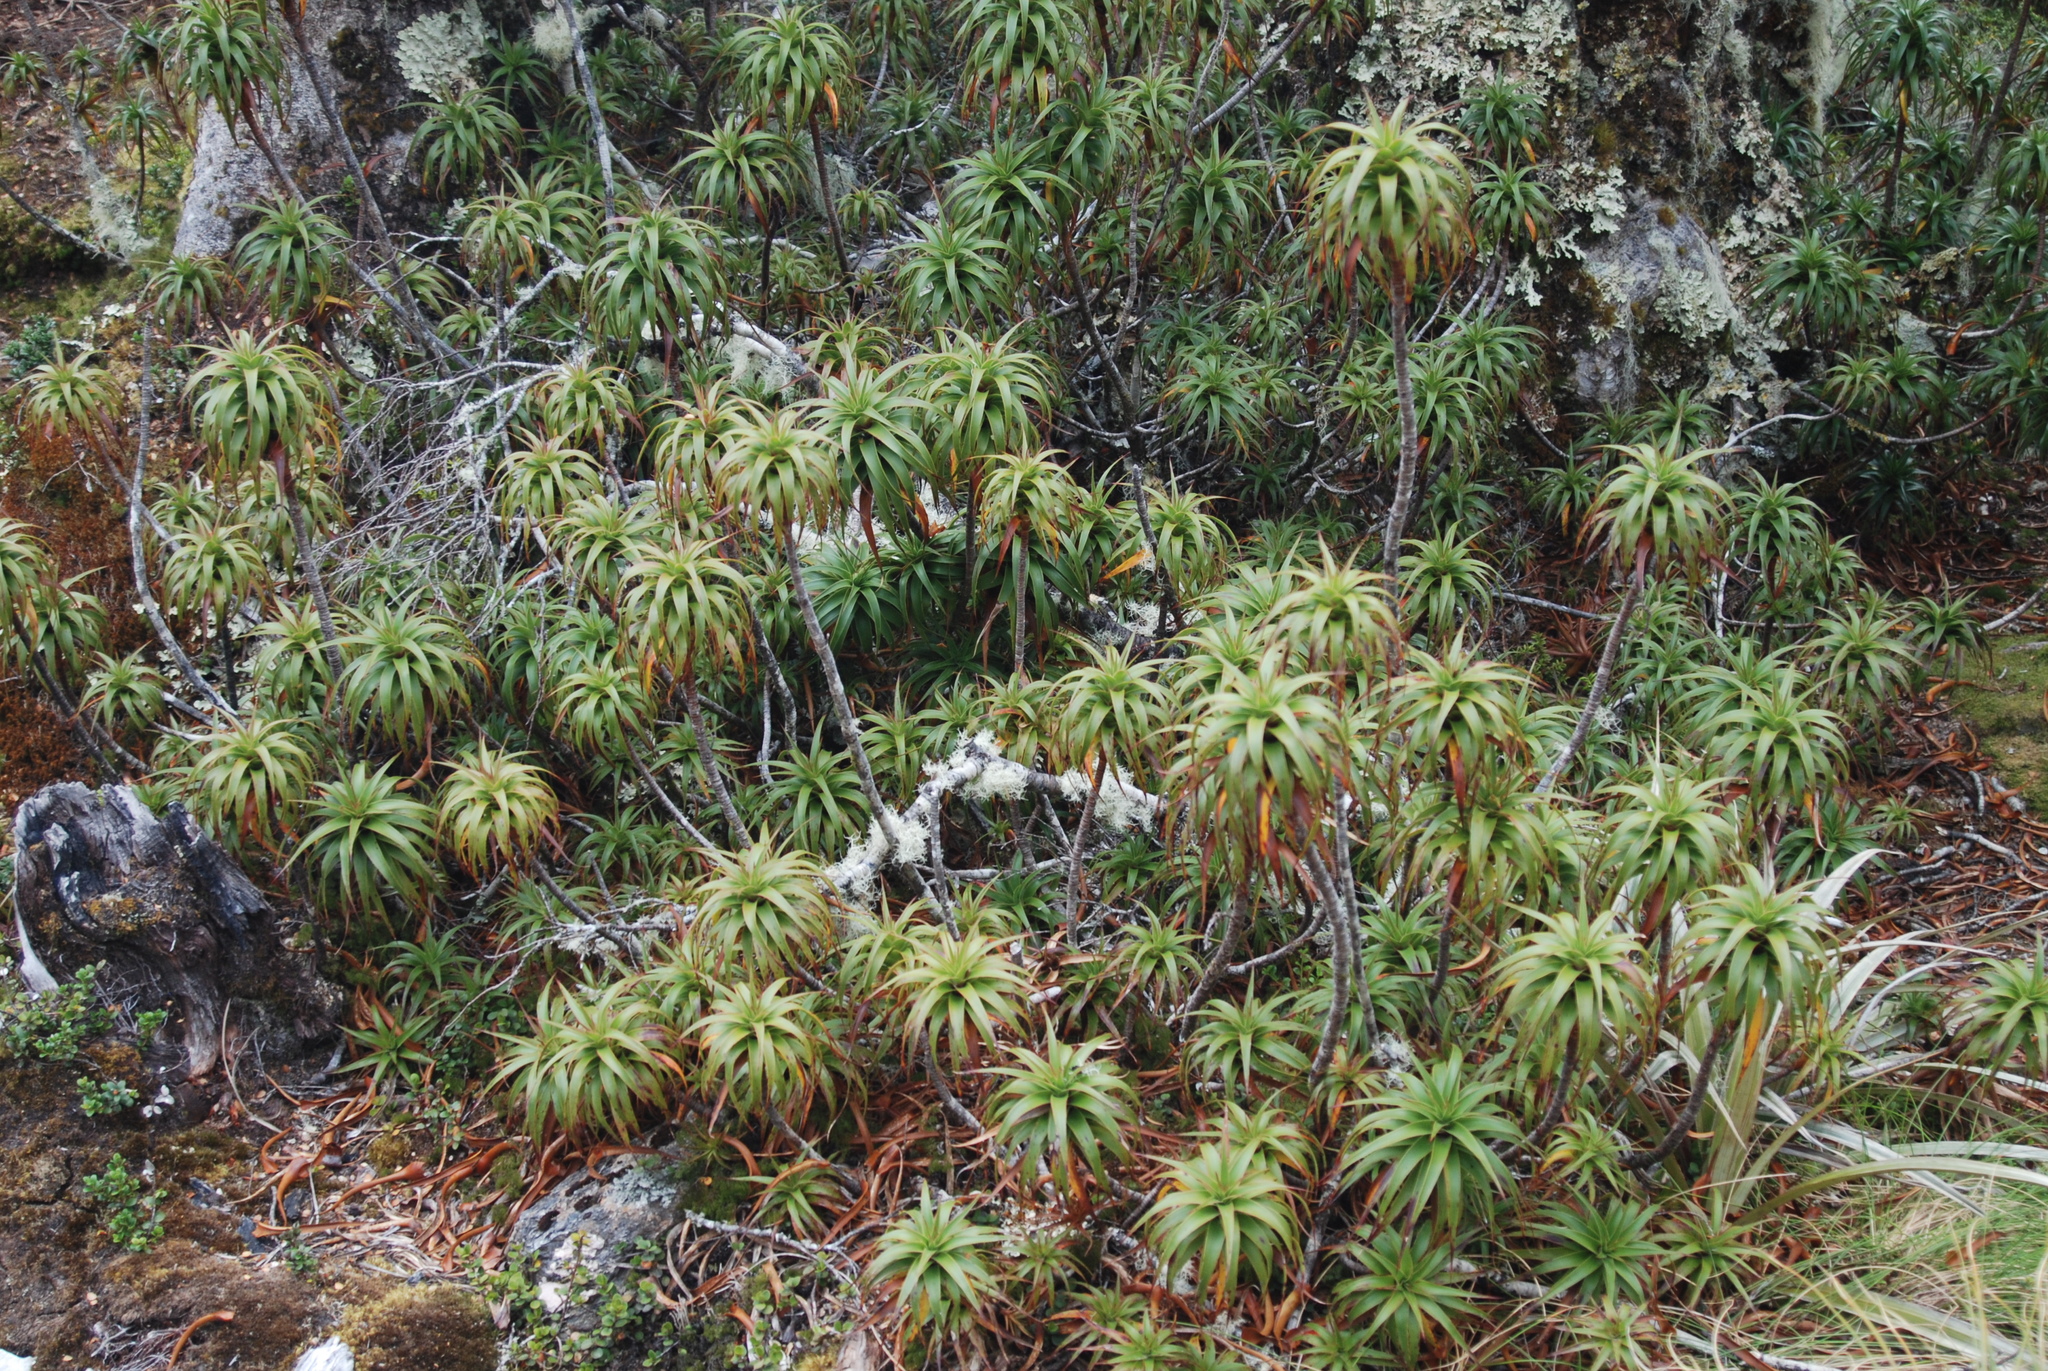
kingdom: Plantae
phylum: Tracheophyta
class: Magnoliopsida
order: Ericales
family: Ericaceae
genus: Dracophyllum
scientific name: Dracophyllum menziesii
